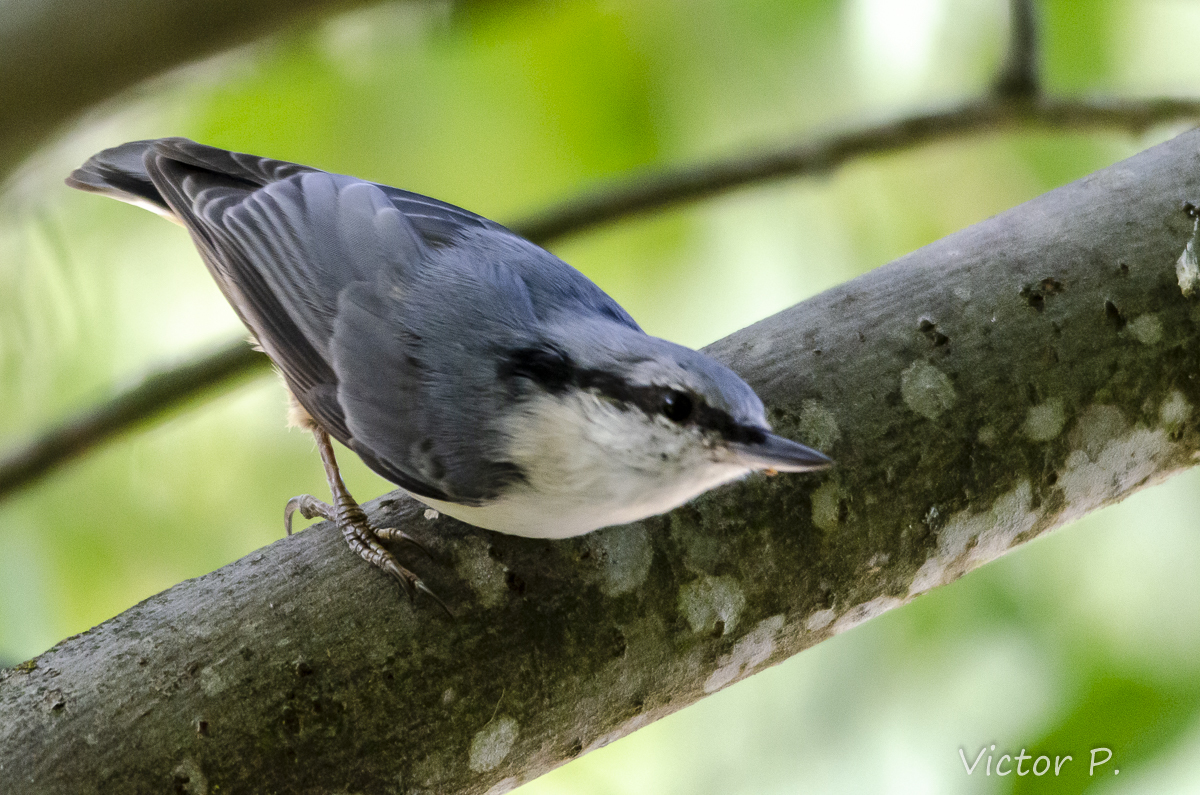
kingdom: Animalia
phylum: Chordata
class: Aves
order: Passeriformes
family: Sittidae
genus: Sitta
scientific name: Sitta europaea
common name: Eurasian nuthatch
